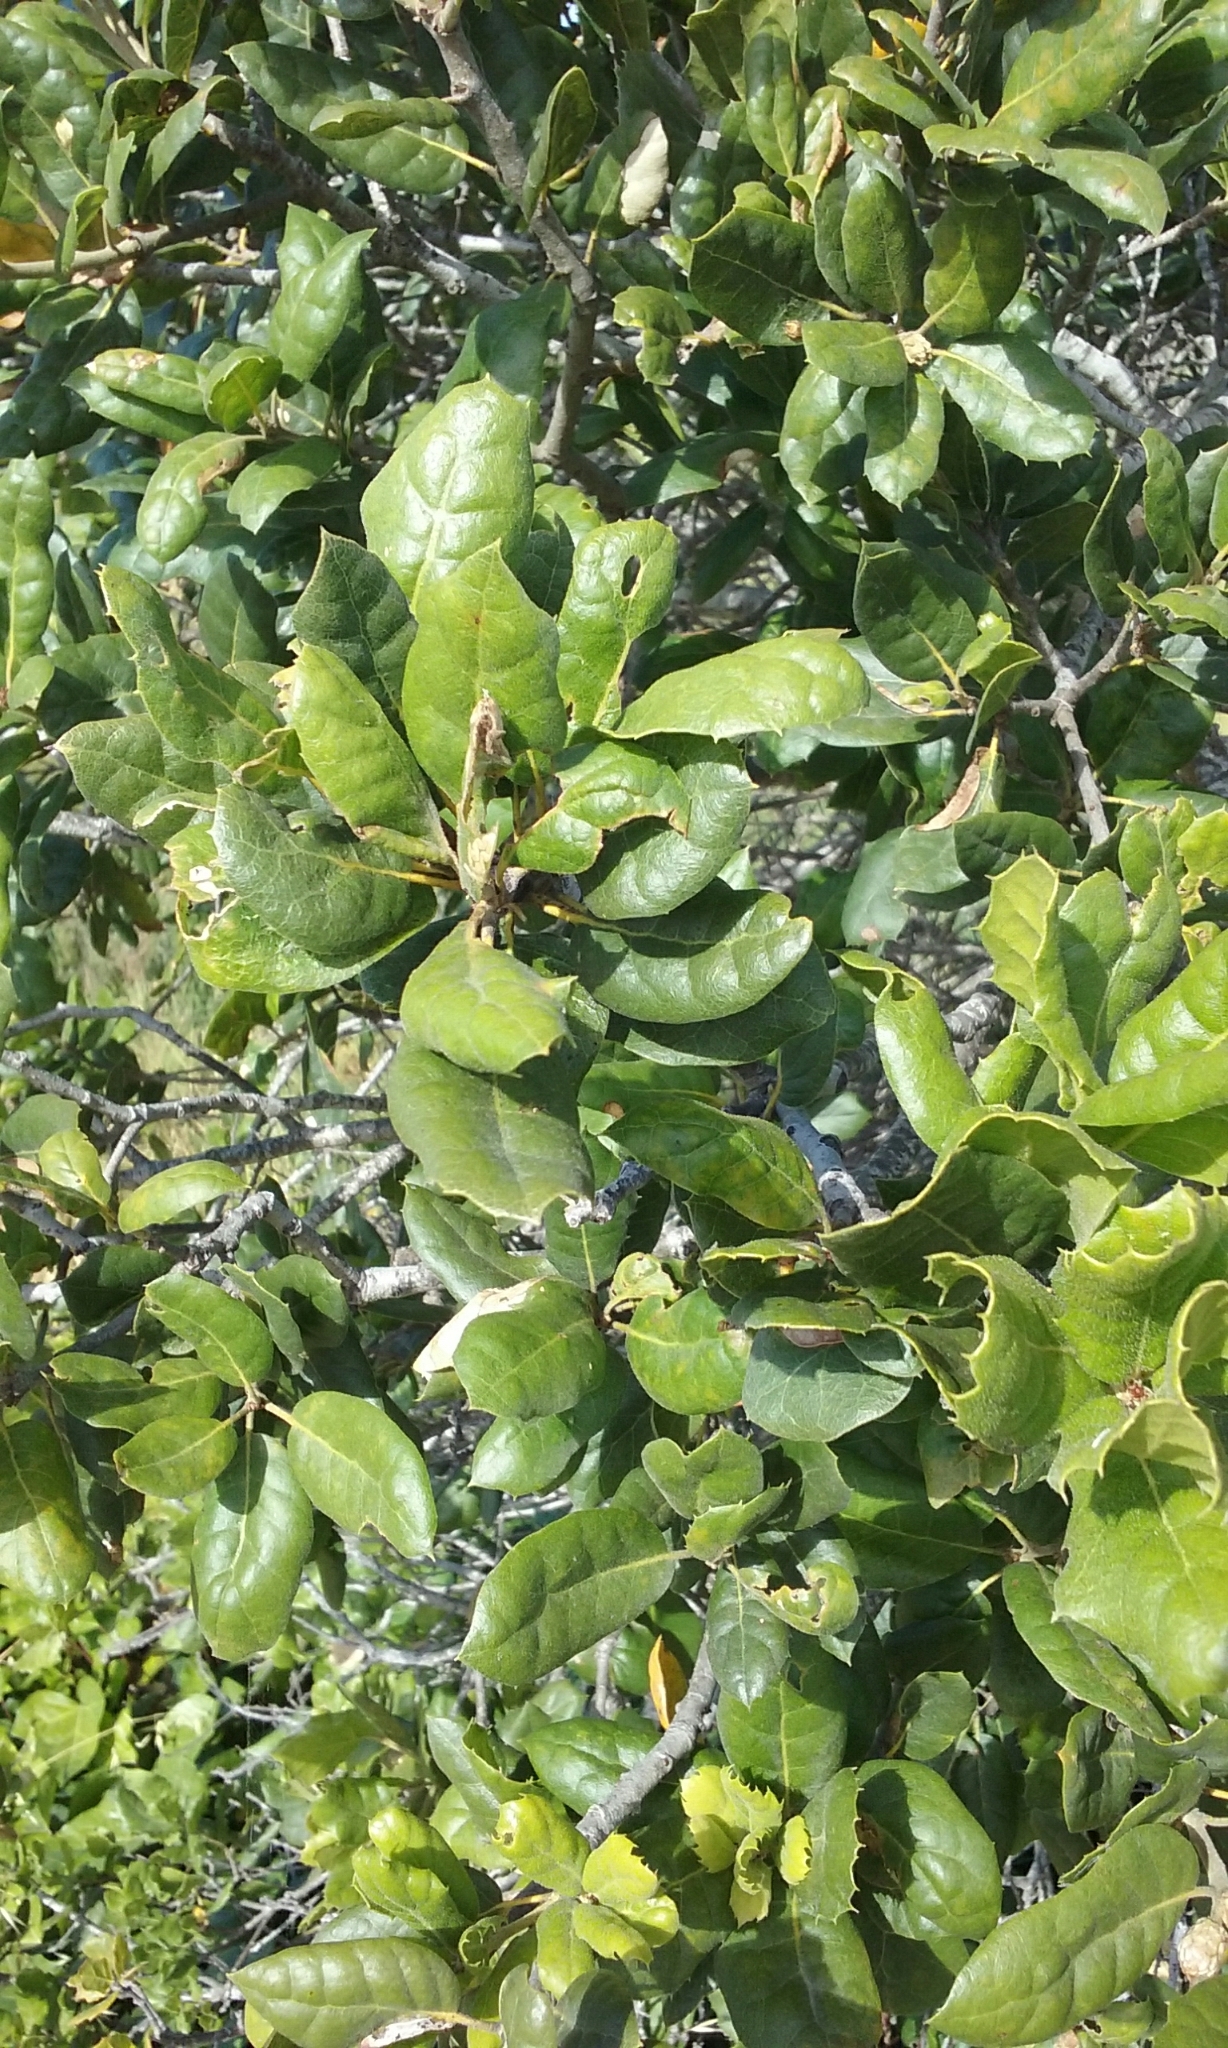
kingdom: Plantae
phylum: Tracheophyta
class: Magnoliopsida
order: Fagales
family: Fagaceae
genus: Quercus
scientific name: Quercus agrifolia
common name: California live oak
